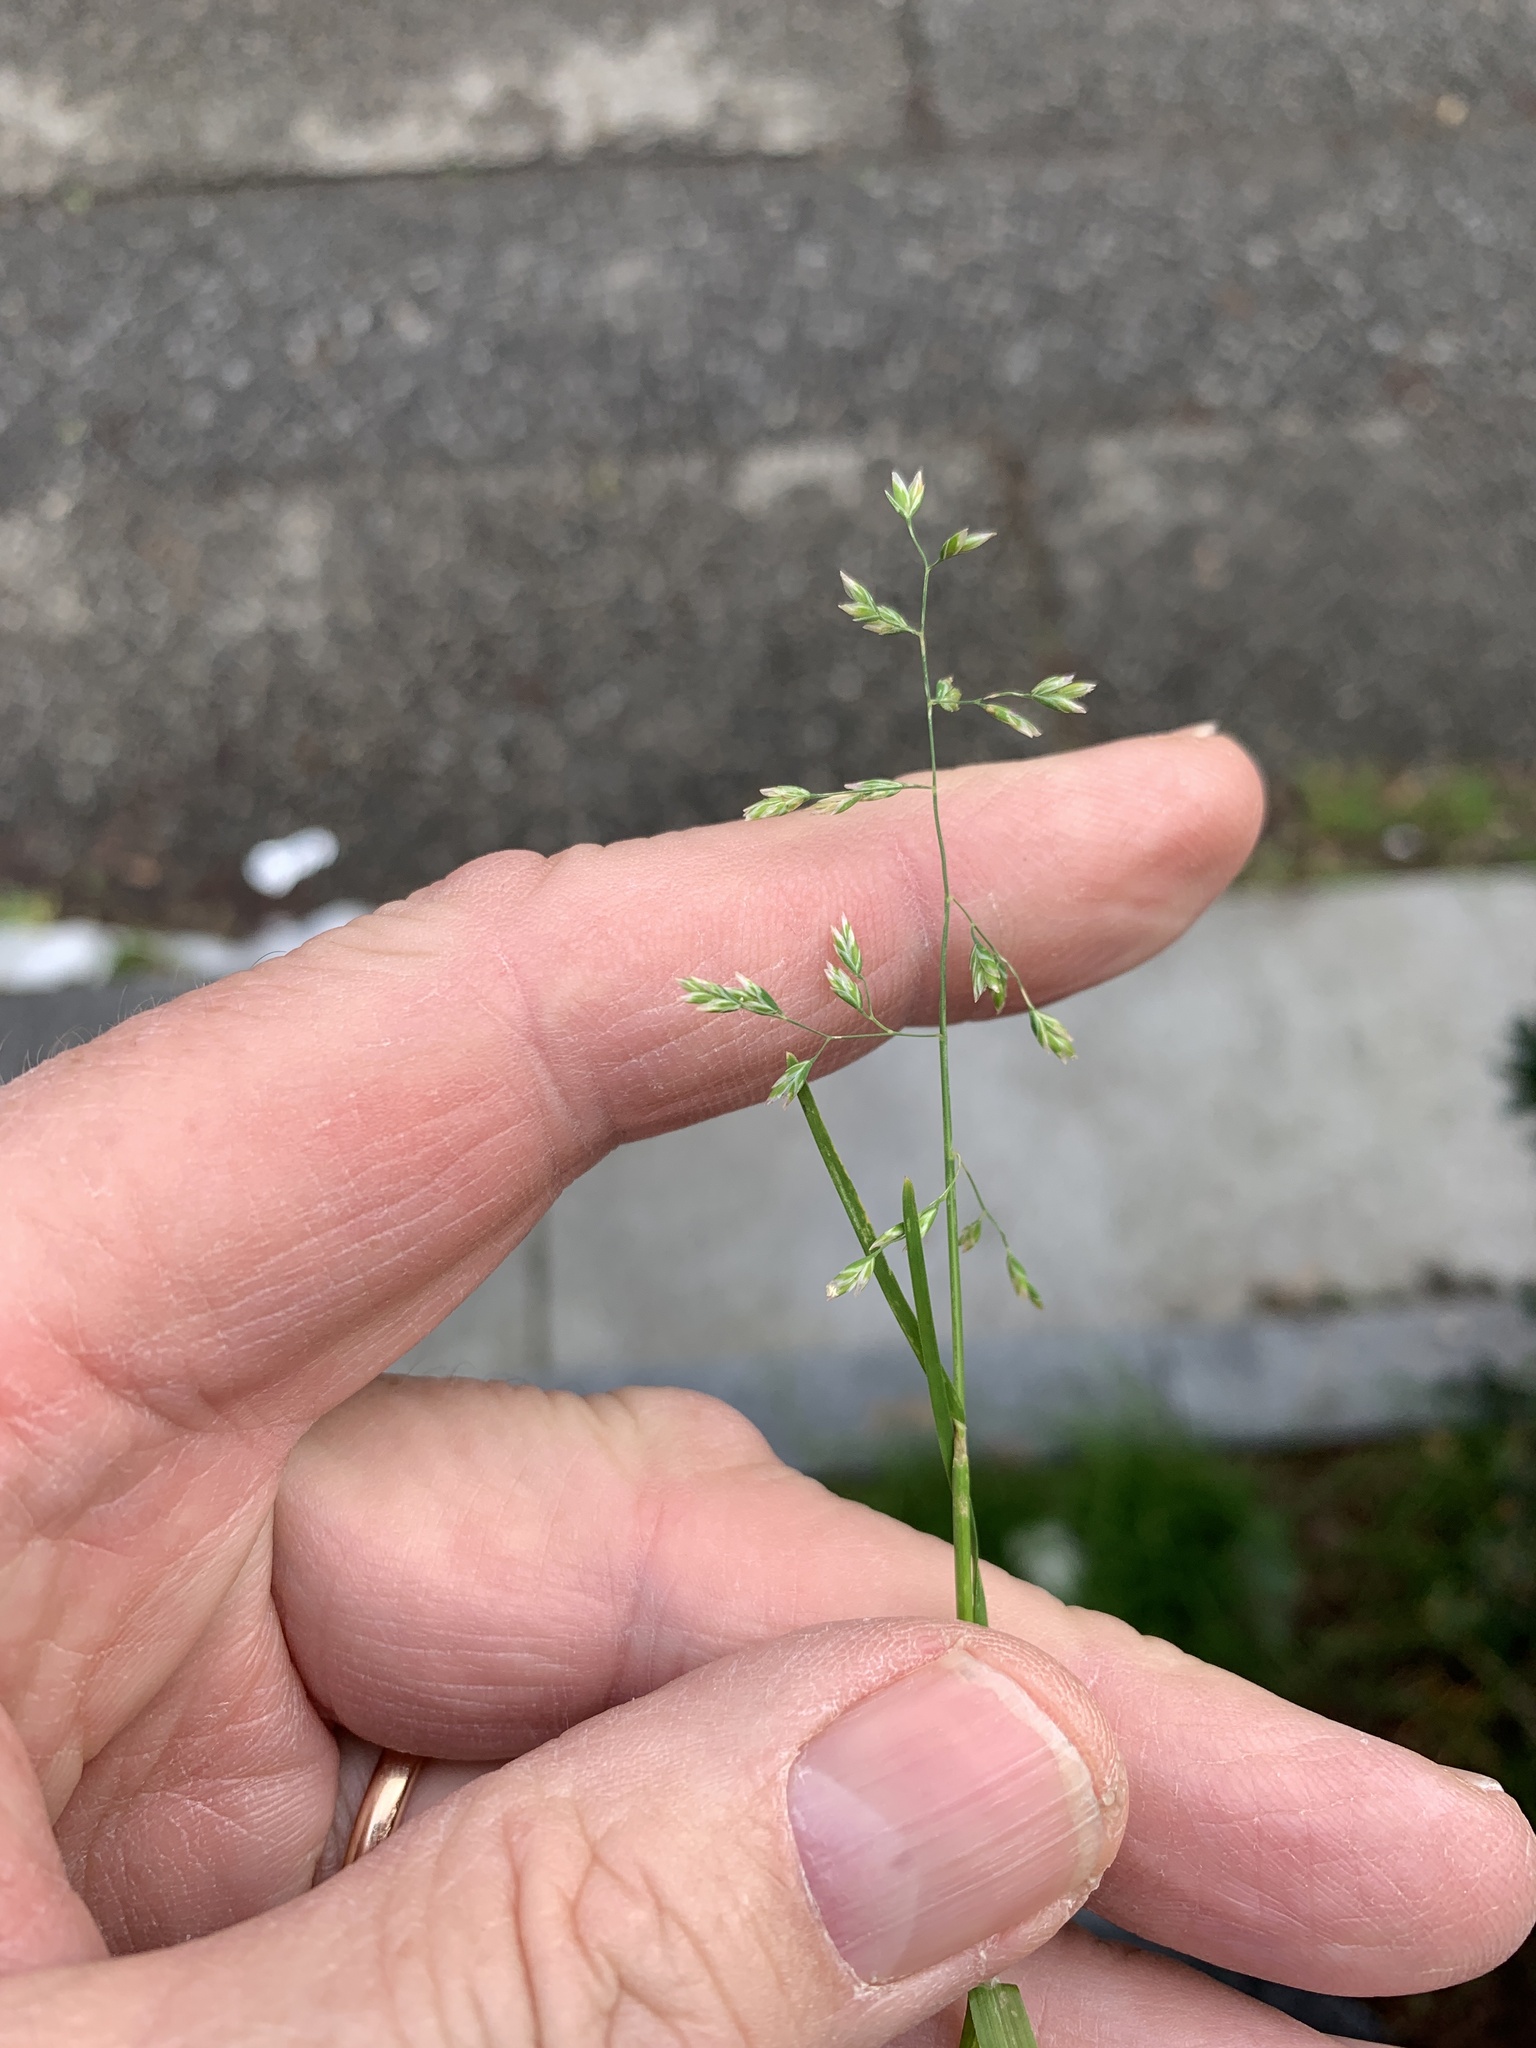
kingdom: Plantae
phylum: Tracheophyta
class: Liliopsida
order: Poales
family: Poaceae
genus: Poa
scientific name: Poa annua
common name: Annual bluegrass
